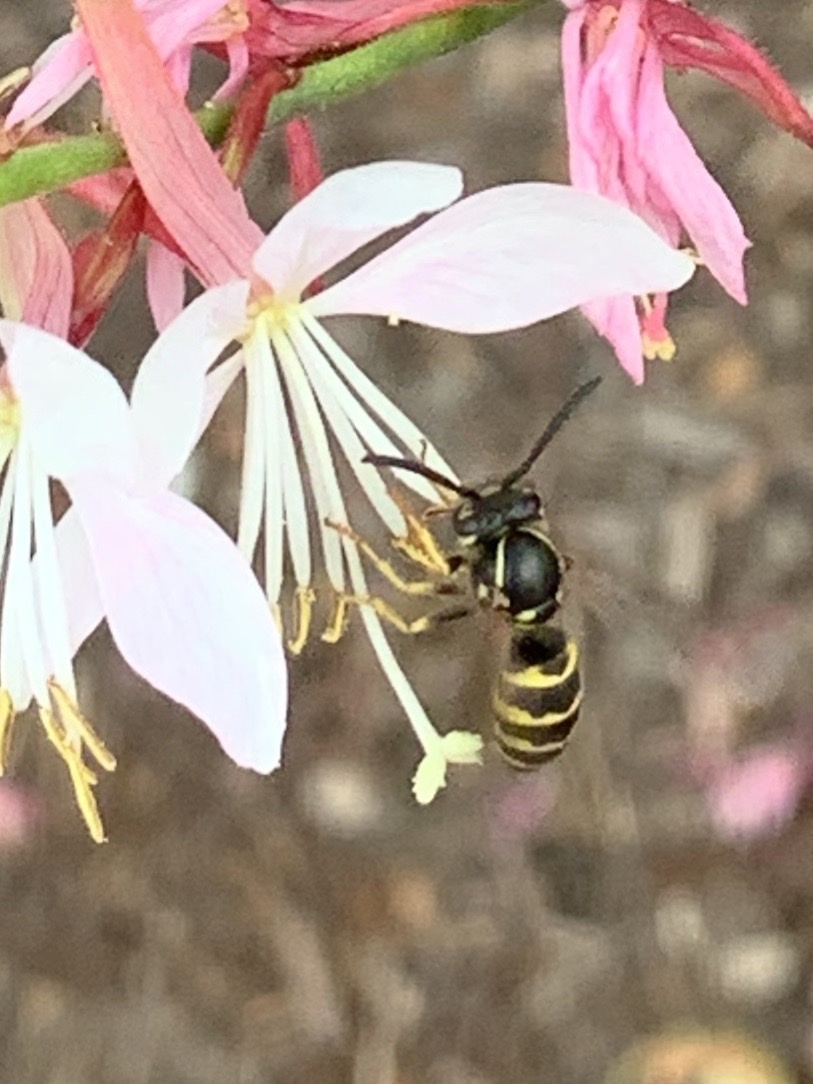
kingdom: Animalia
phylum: Arthropoda
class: Insecta
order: Hymenoptera
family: Vespidae
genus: Vespula
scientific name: Vespula alascensis
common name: Alaska yellowjacket
